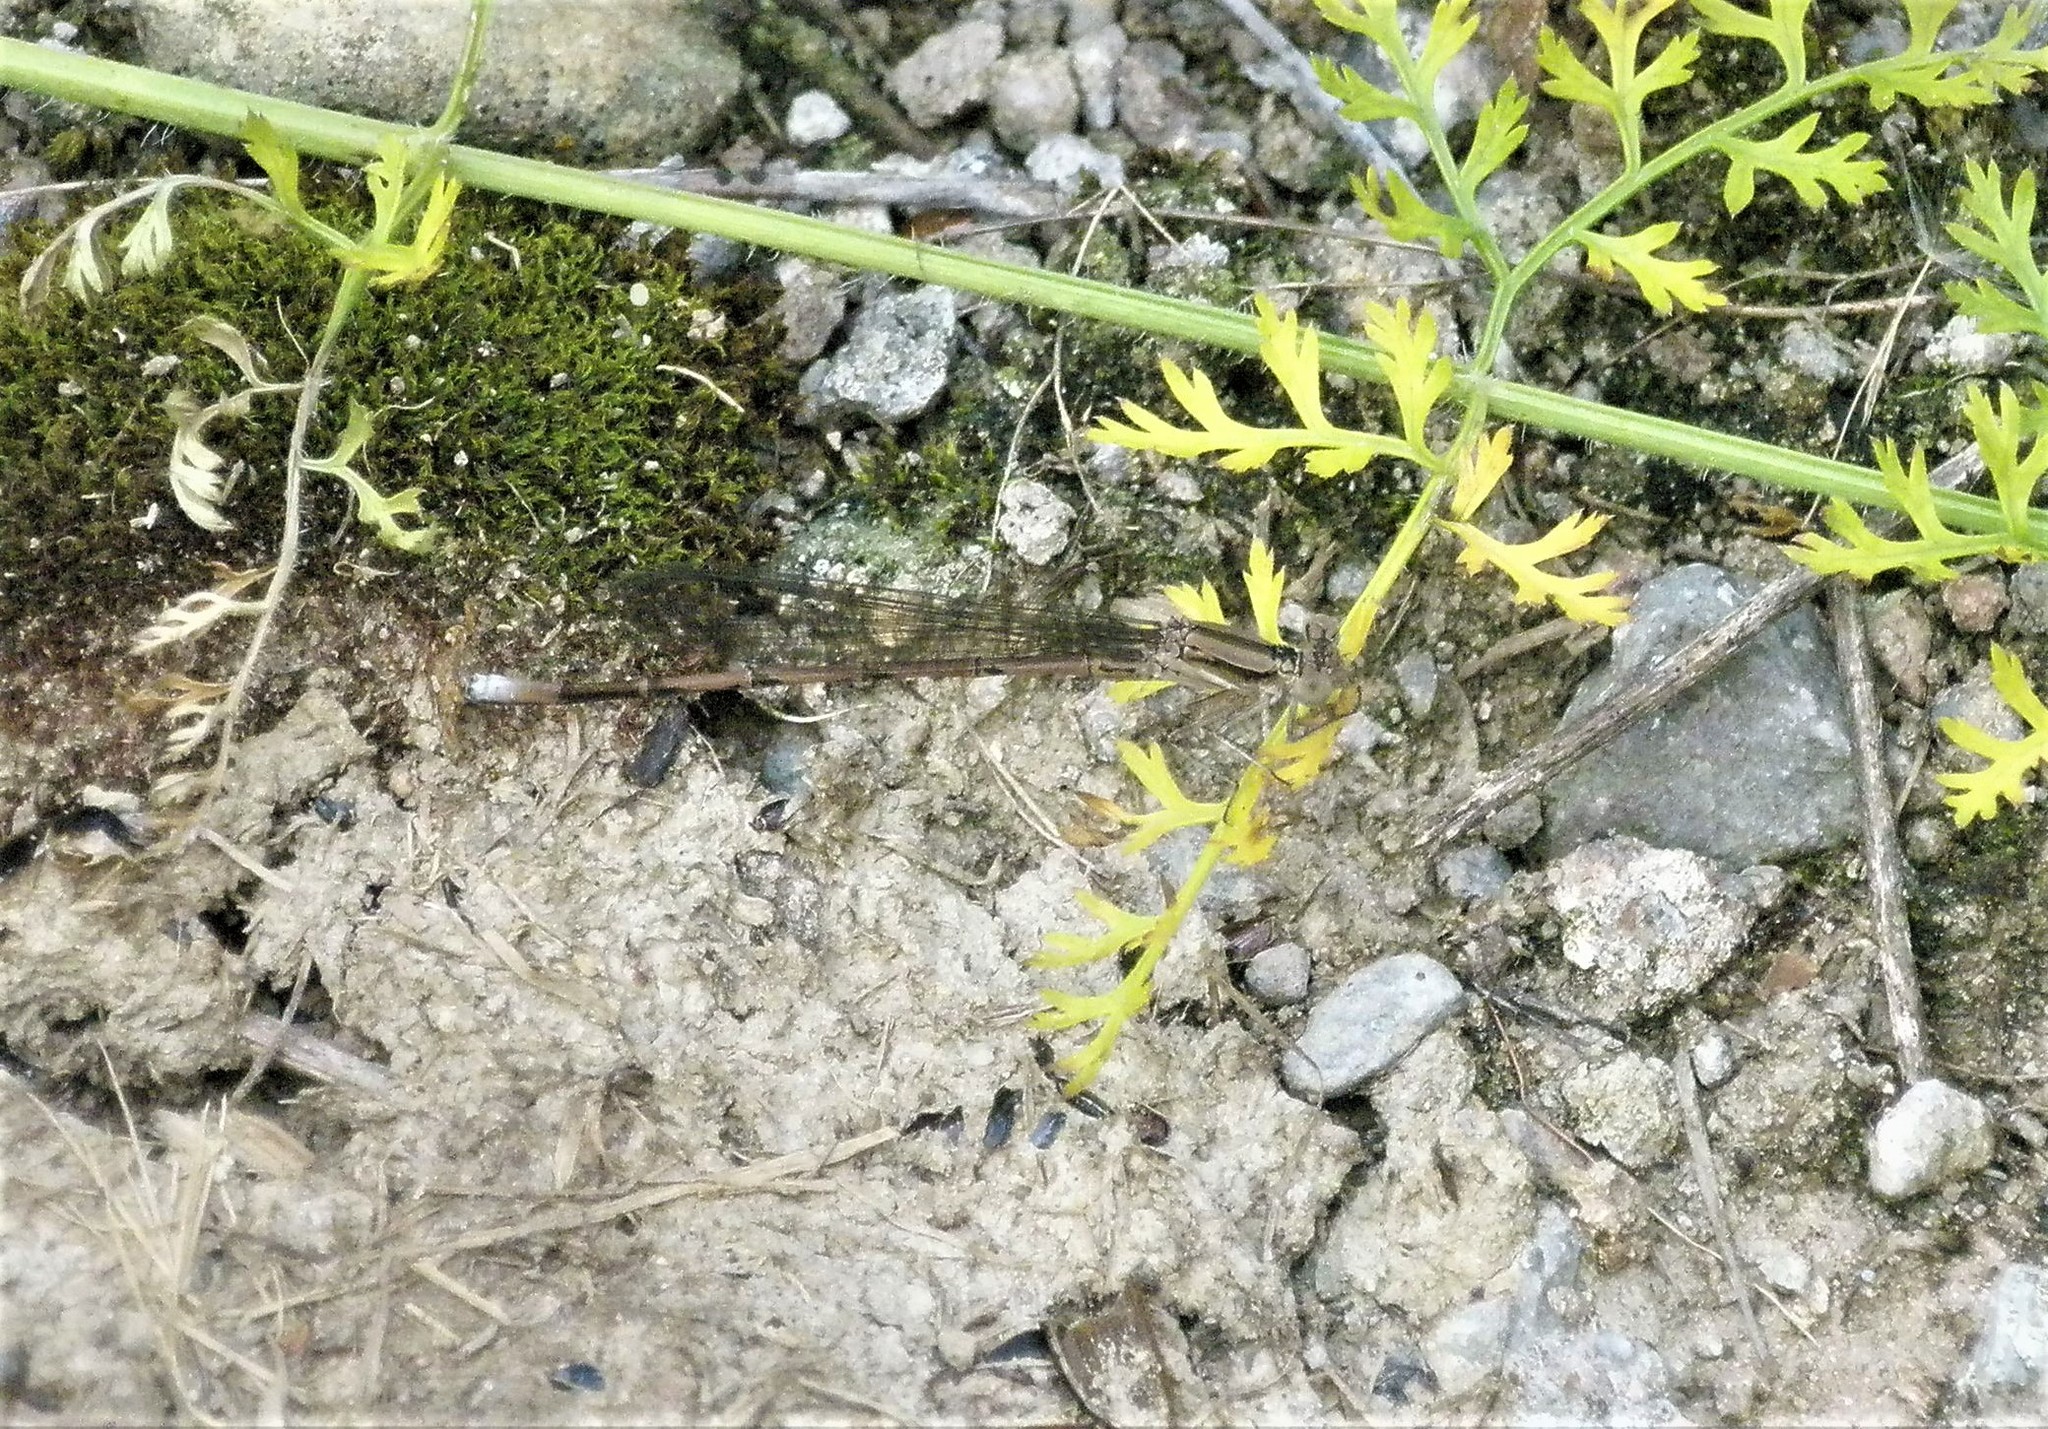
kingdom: Animalia
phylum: Arthropoda
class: Insecta
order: Odonata
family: Coenagrionidae
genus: Argia
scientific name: Argia fumipennis
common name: Variable dancer
